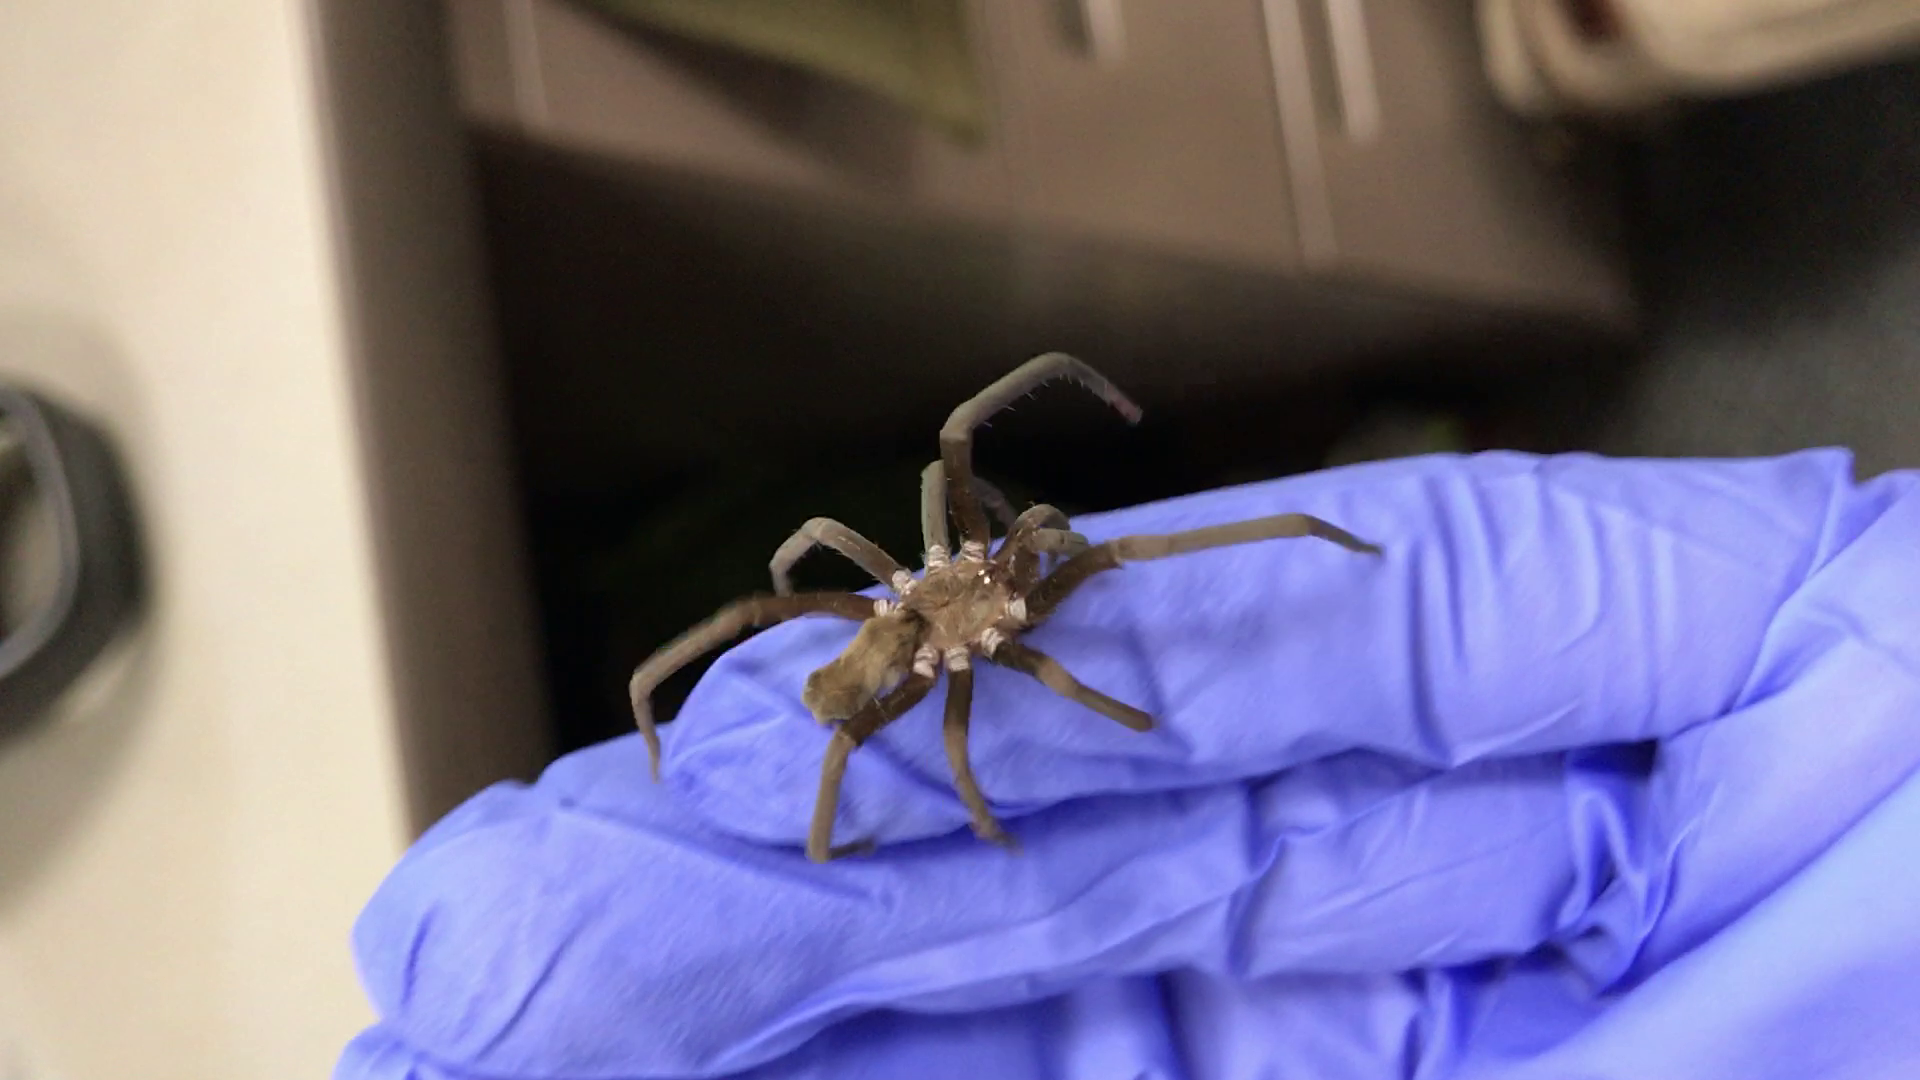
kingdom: Animalia
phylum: Arthropoda
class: Arachnida
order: Araneae
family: Filistatidae
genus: Kukulcania
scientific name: Kukulcania hibernalis
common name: Crevice weaver
